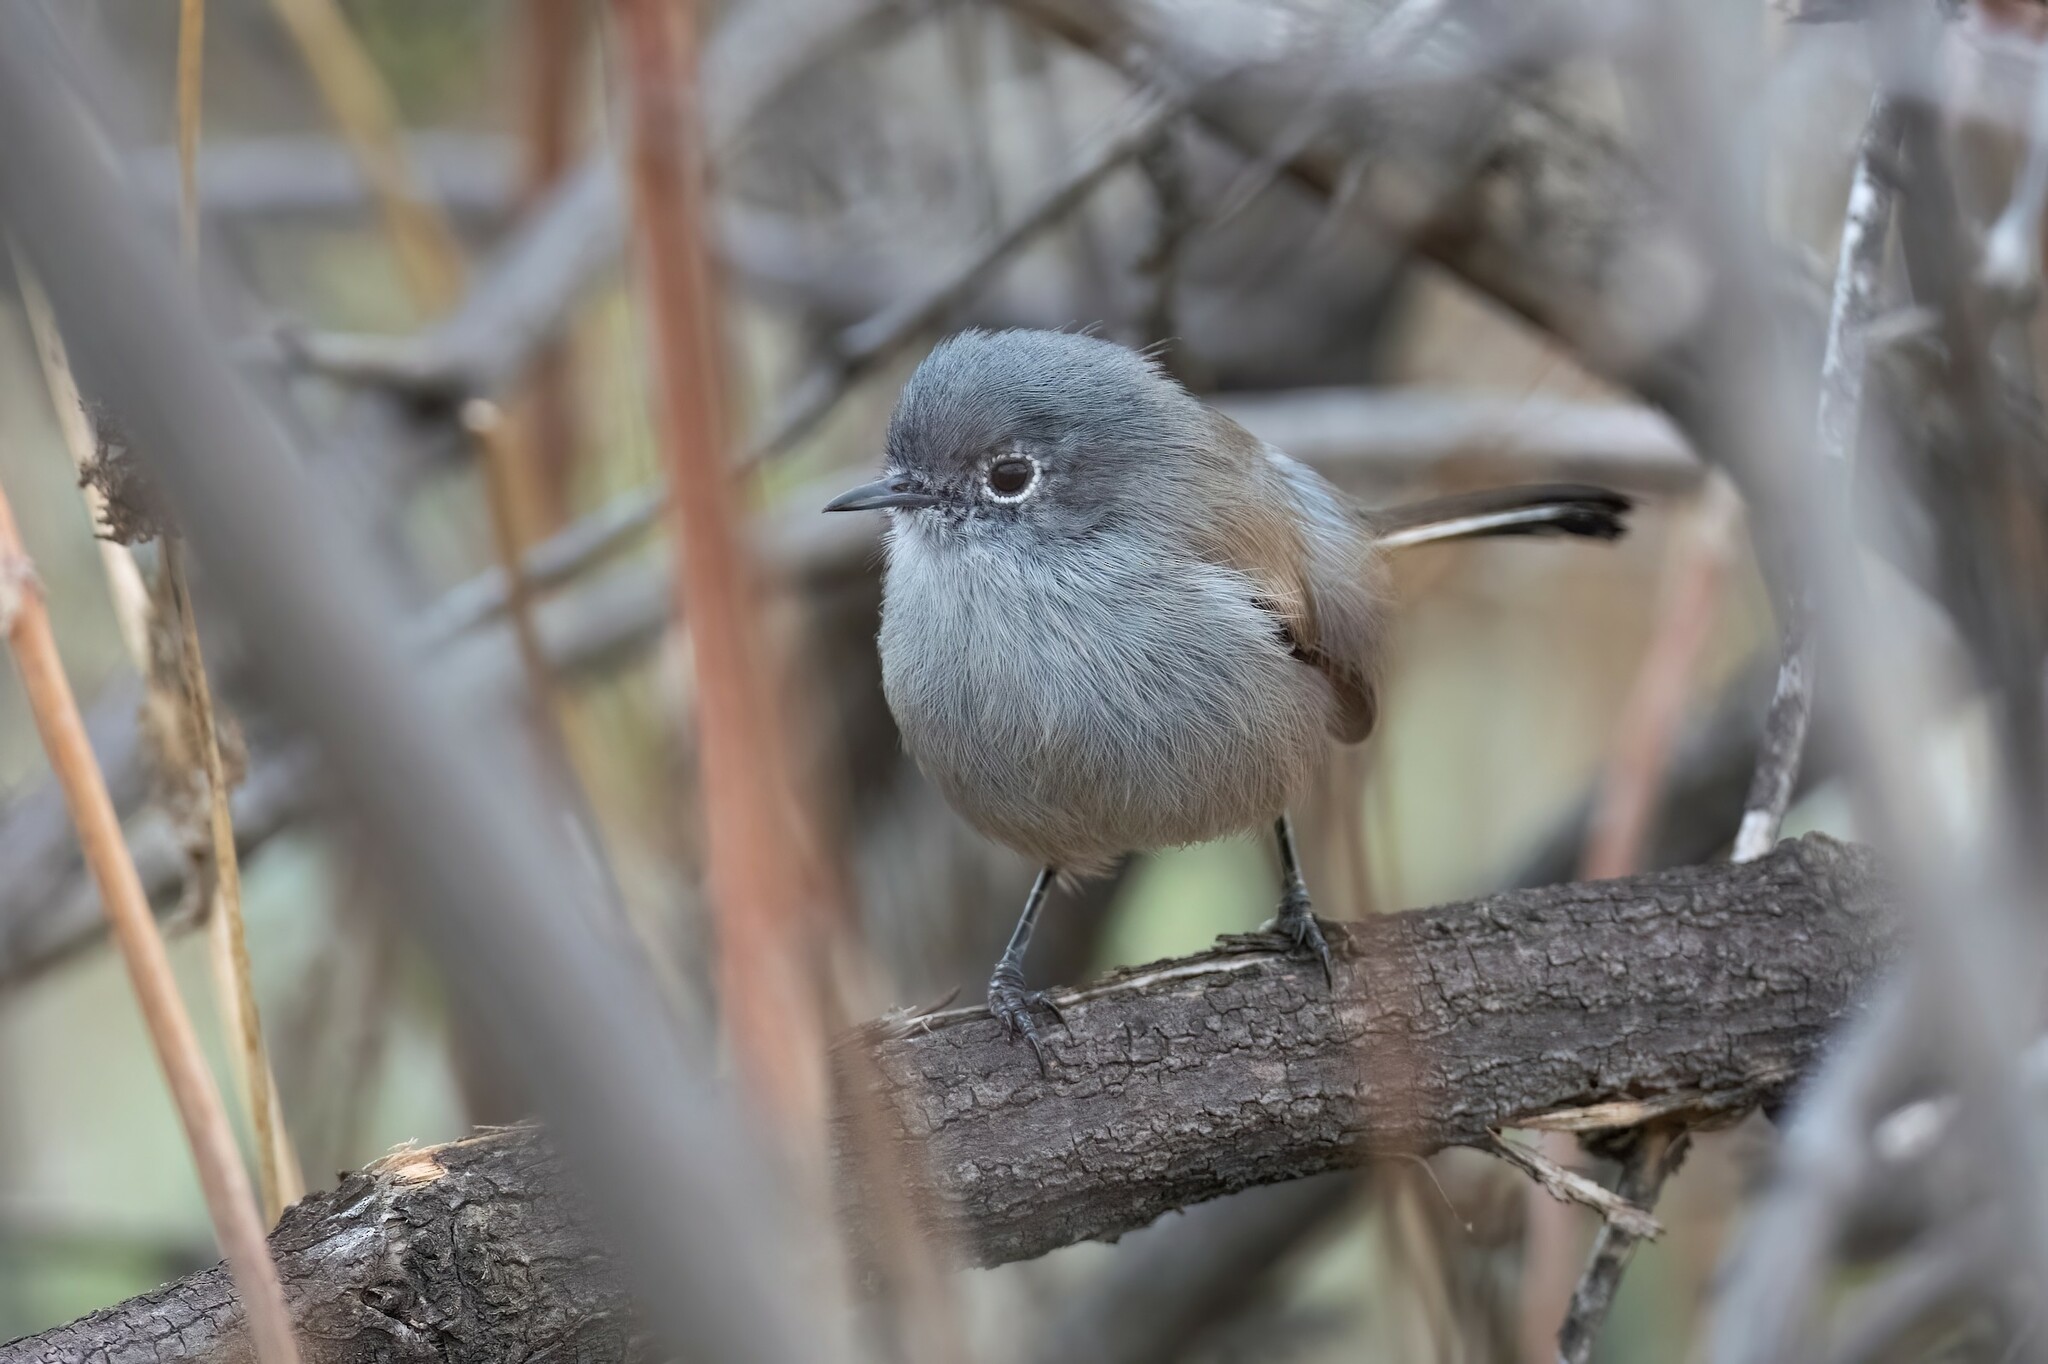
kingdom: Animalia
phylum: Chordata
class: Aves
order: Passeriformes
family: Polioptilidae
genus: Polioptila
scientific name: Polioptila californica
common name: California gnatcatcher
